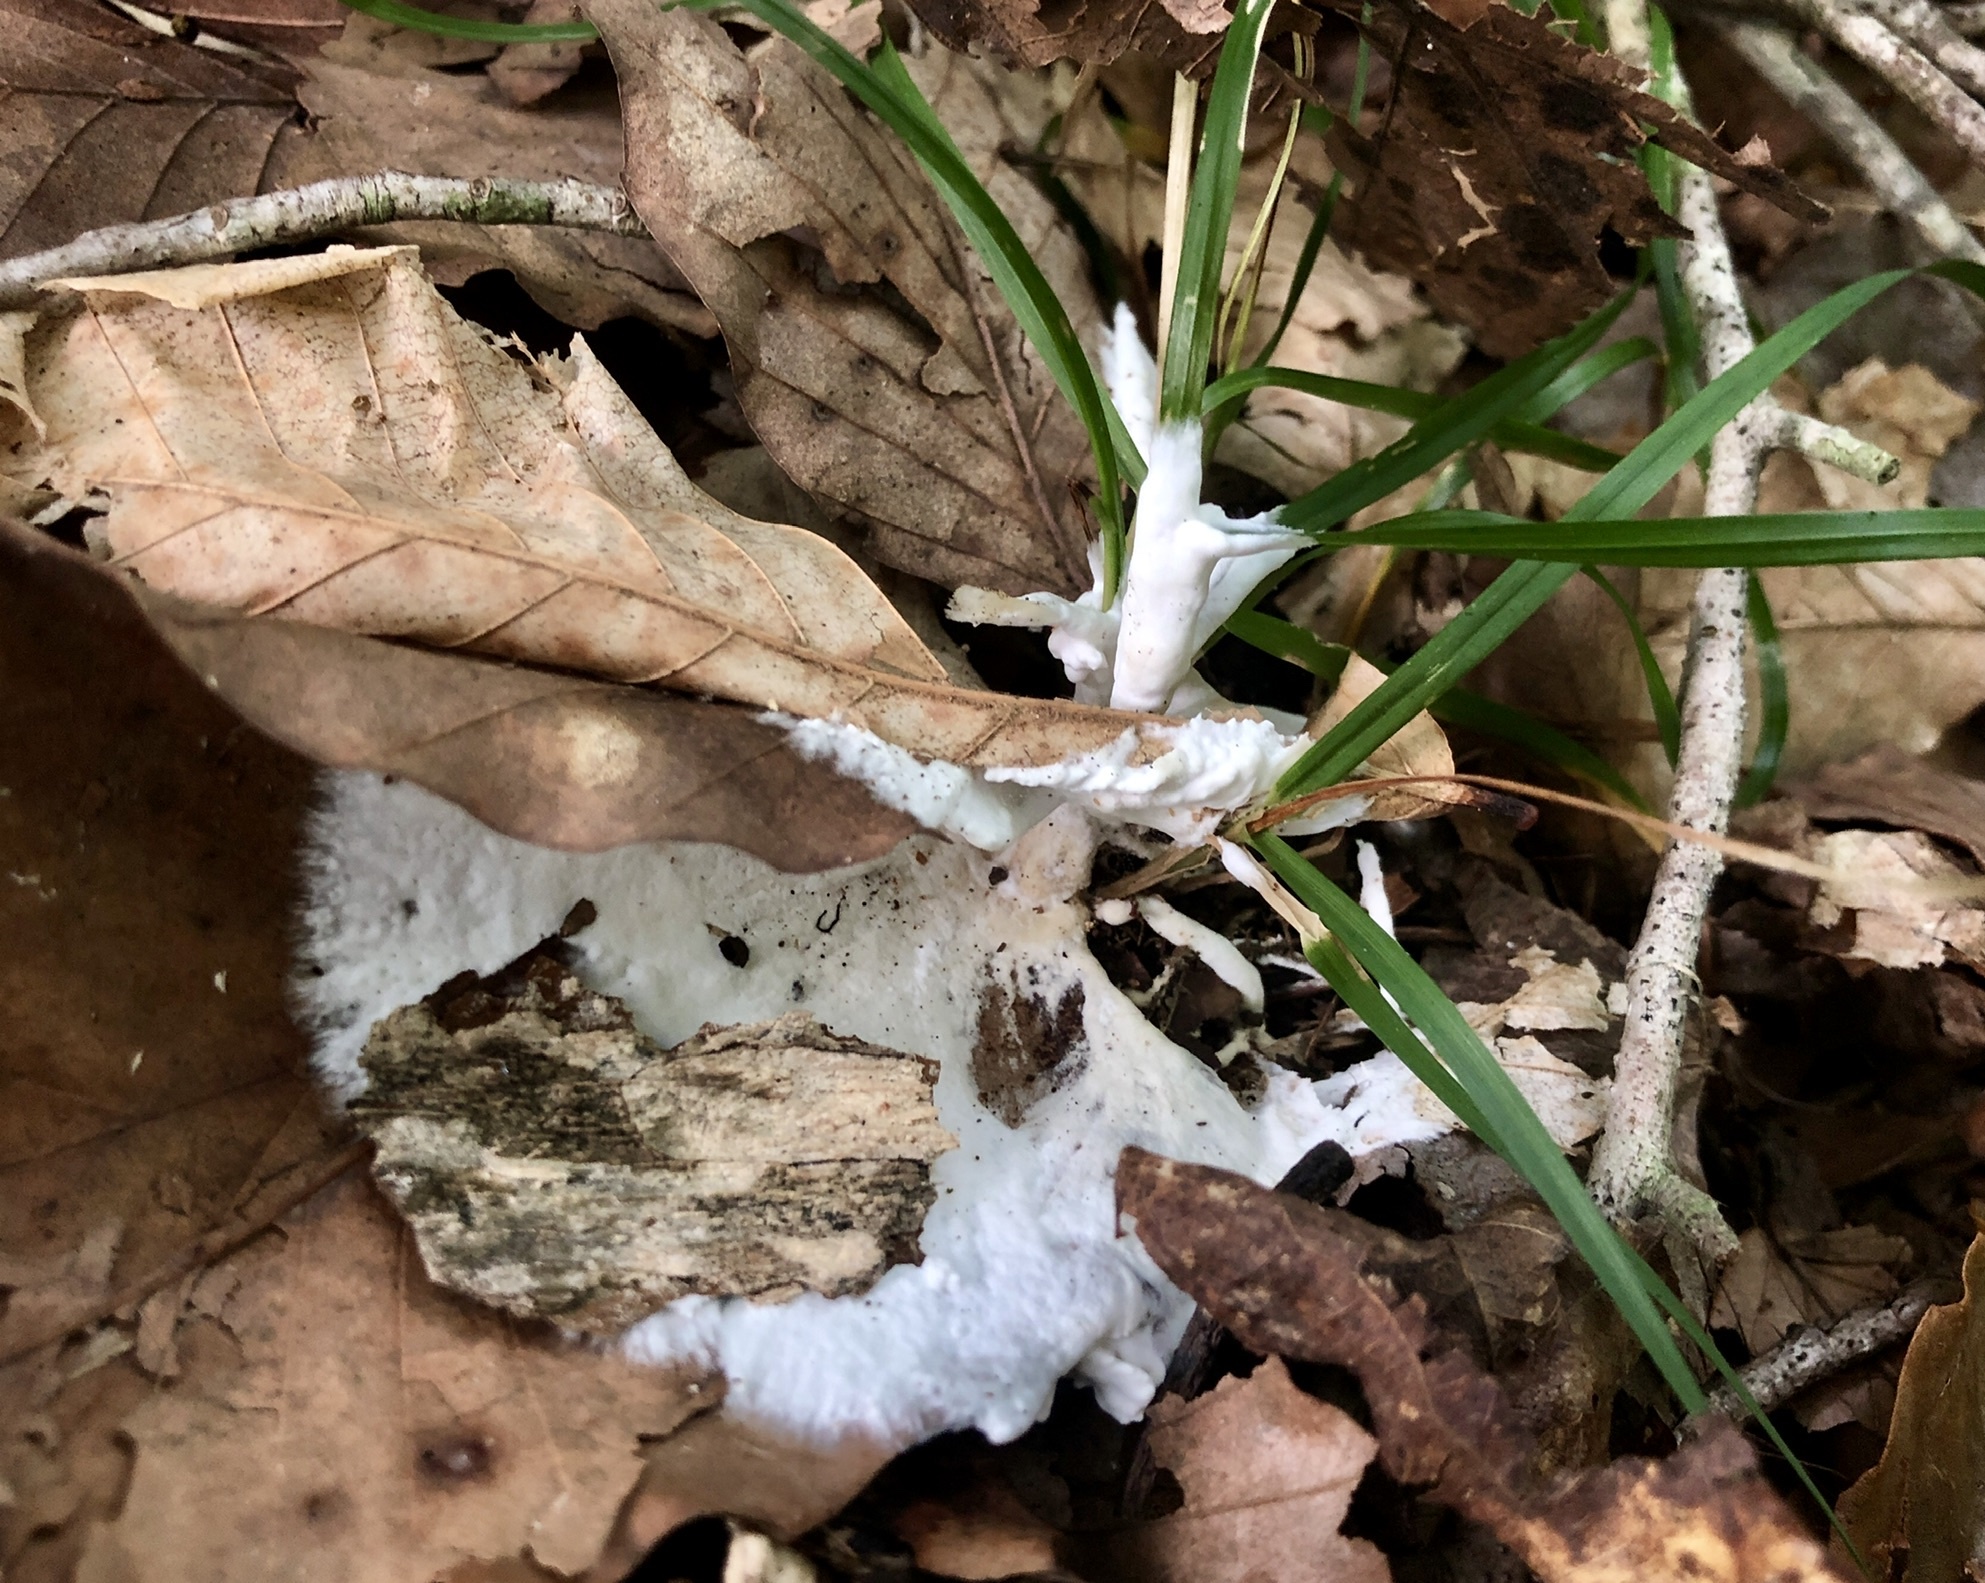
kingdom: Fungi
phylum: Basidiomycota
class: Agaricomycetes
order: Sebacinales
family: Sebacinaceae
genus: Helvellosebacina
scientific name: Helvellosebacina concrescens
